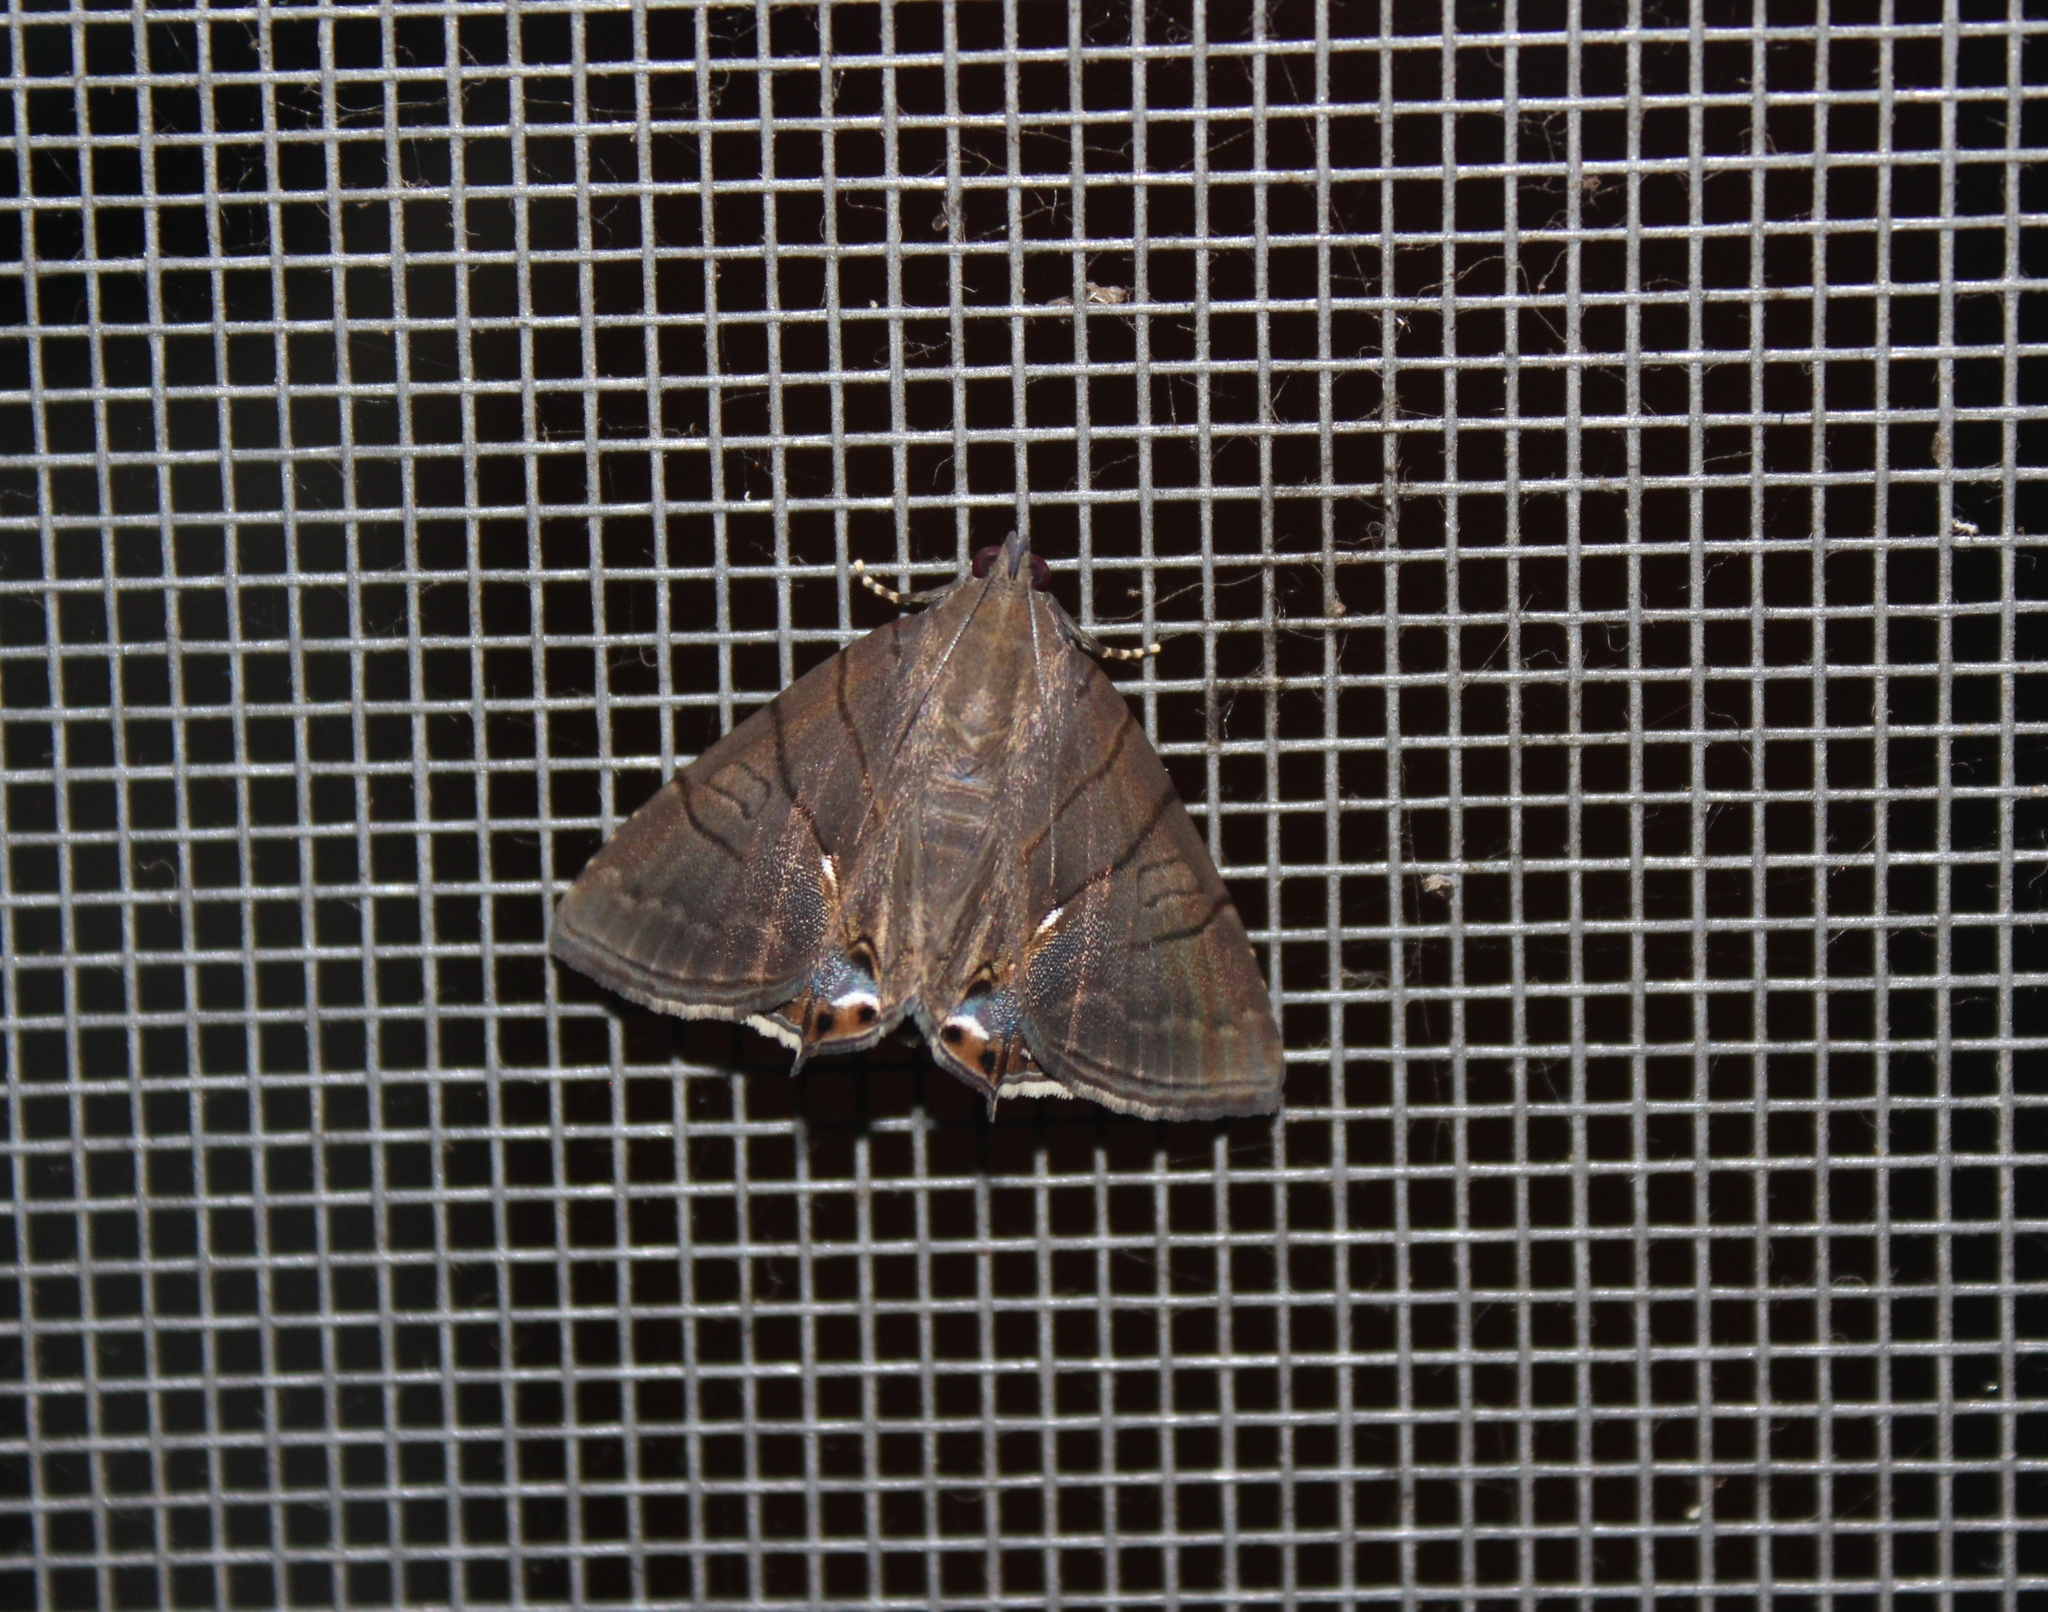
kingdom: Animalia
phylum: Arthropoda
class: Insecta
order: Lepidoptera
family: Erebidae
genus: Eulepidotis
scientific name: Eulepidotis egista
